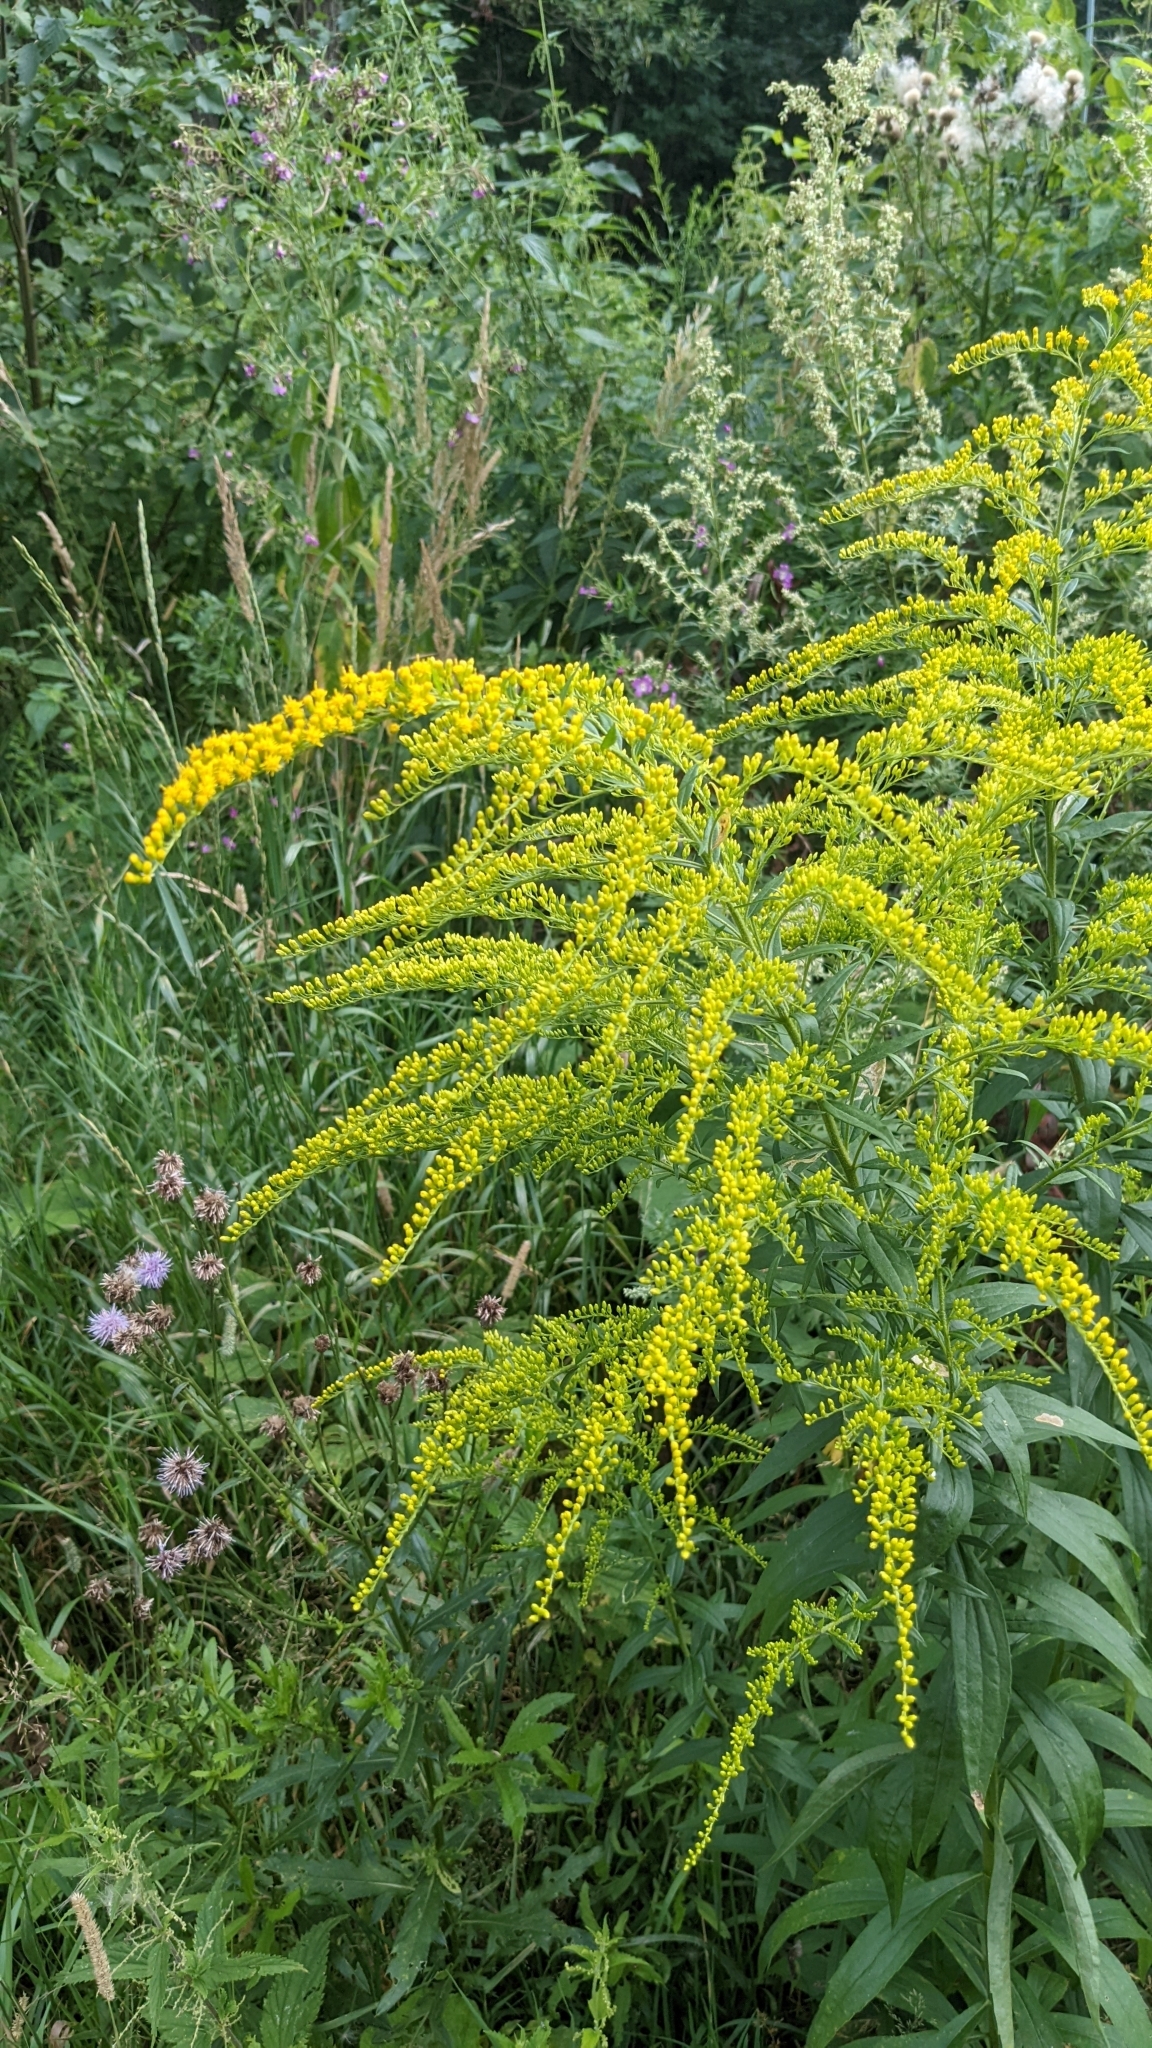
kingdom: Plantae
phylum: Tracheophyta
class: Magnoliopsida
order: Asterales
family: Asteraceae
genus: Solidago
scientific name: Solidago canadensis
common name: Canada goldenrod
